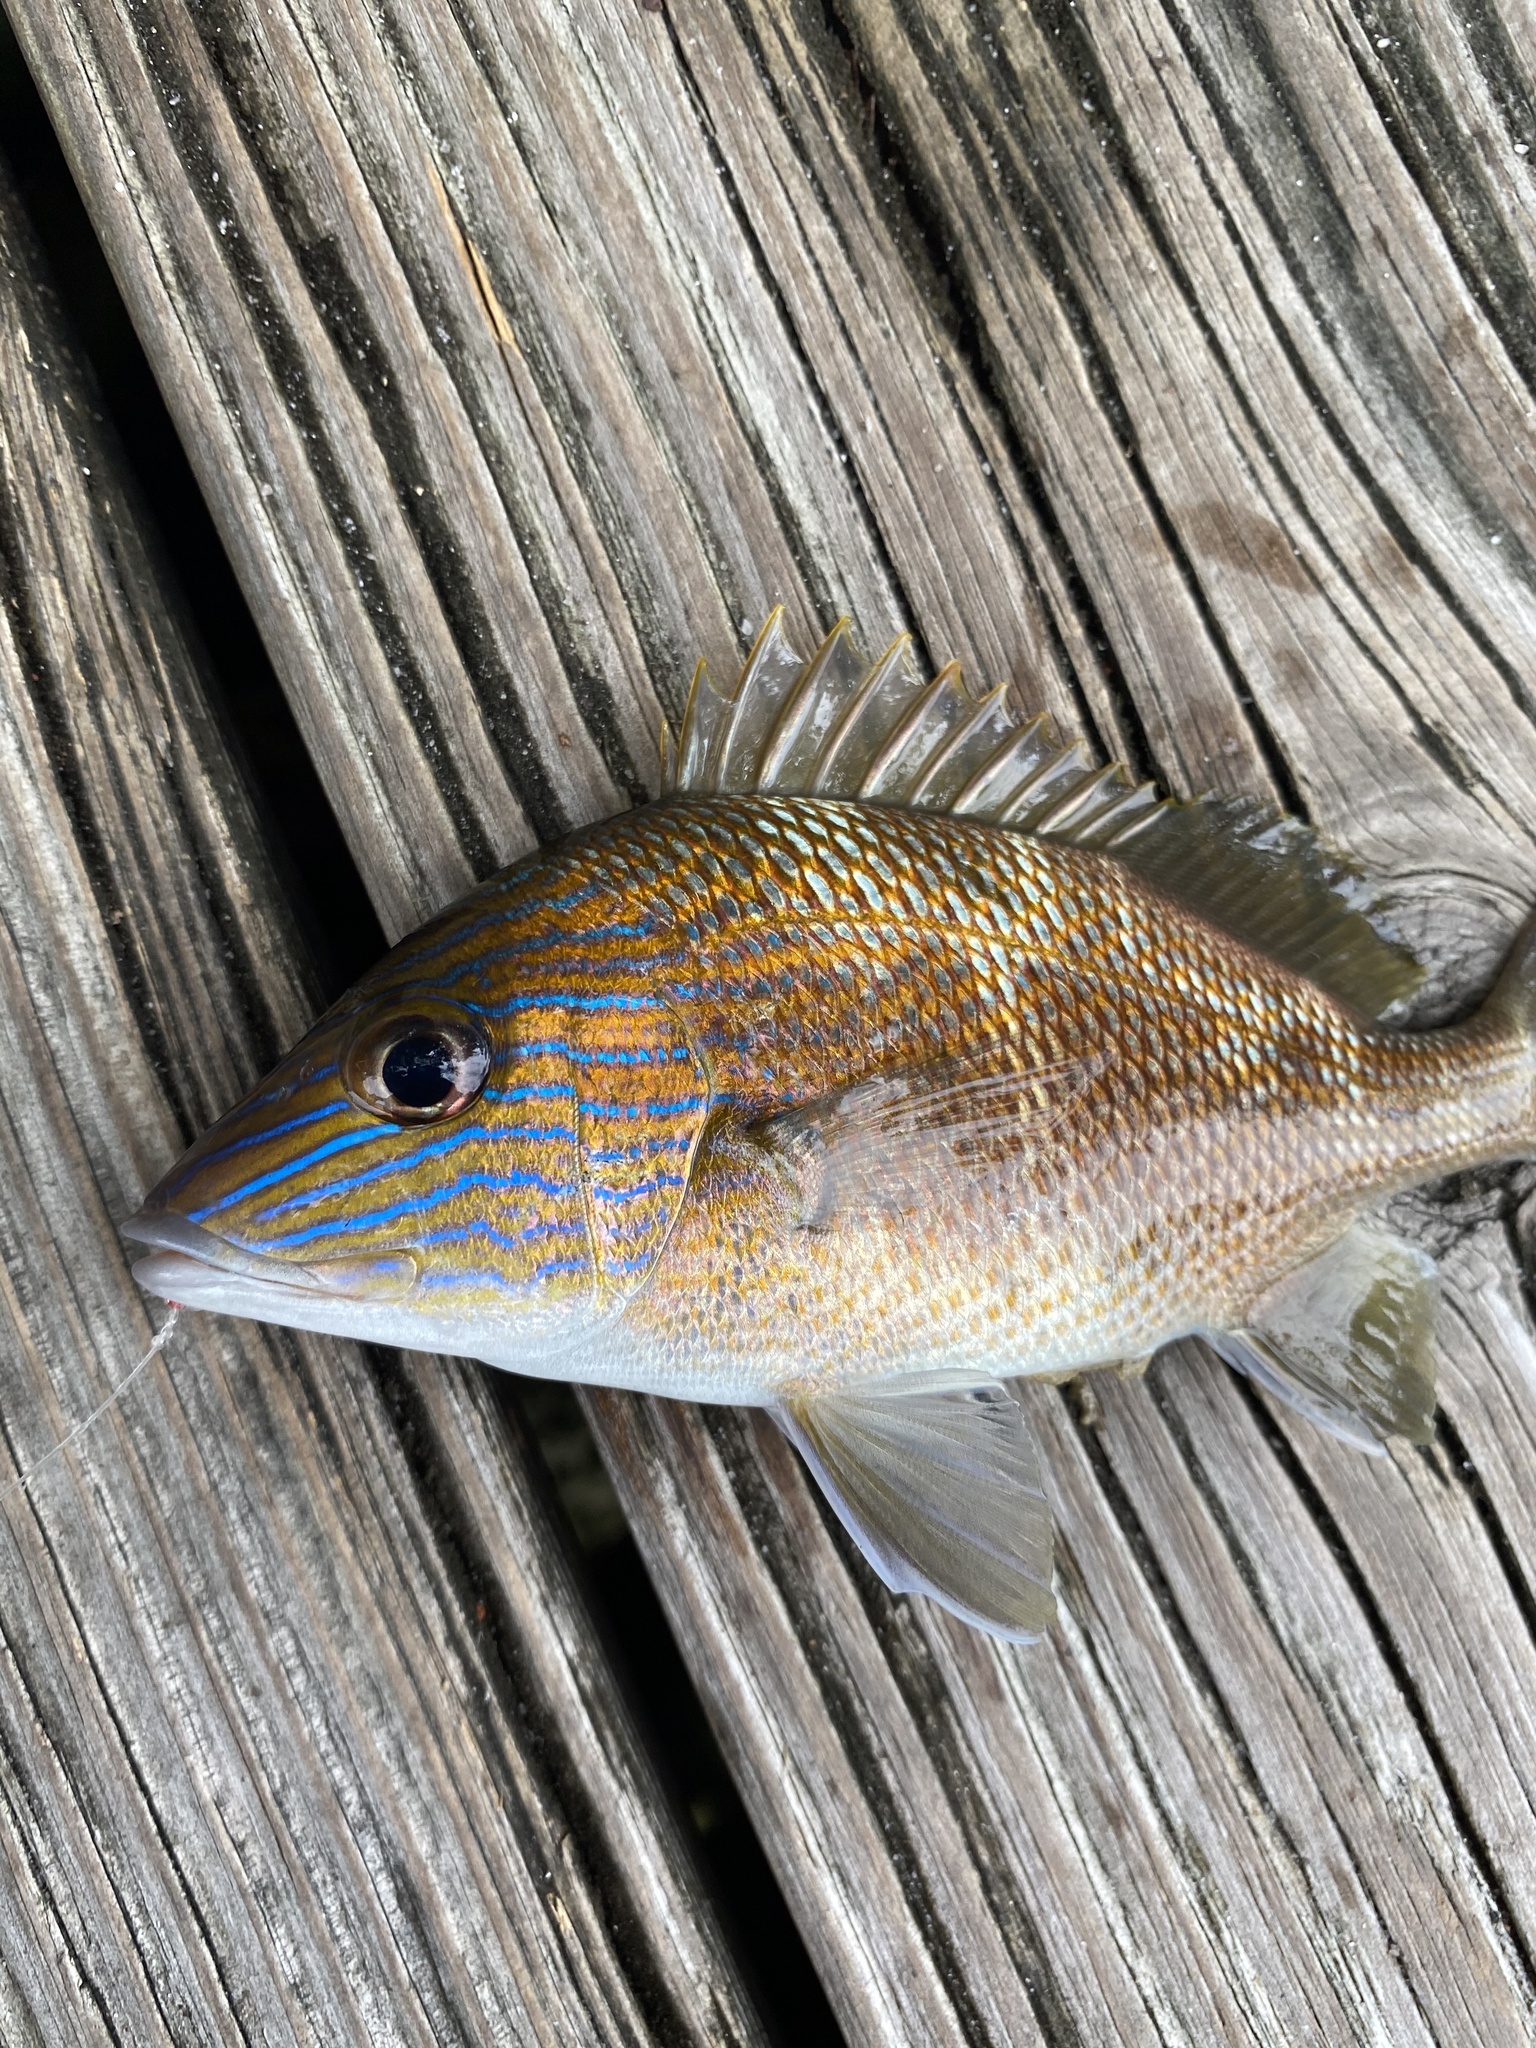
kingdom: Animalia
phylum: Chordata
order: Perciformes
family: Haemulidae
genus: Haemulon
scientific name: Haemulon plumierii
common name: White grunt
